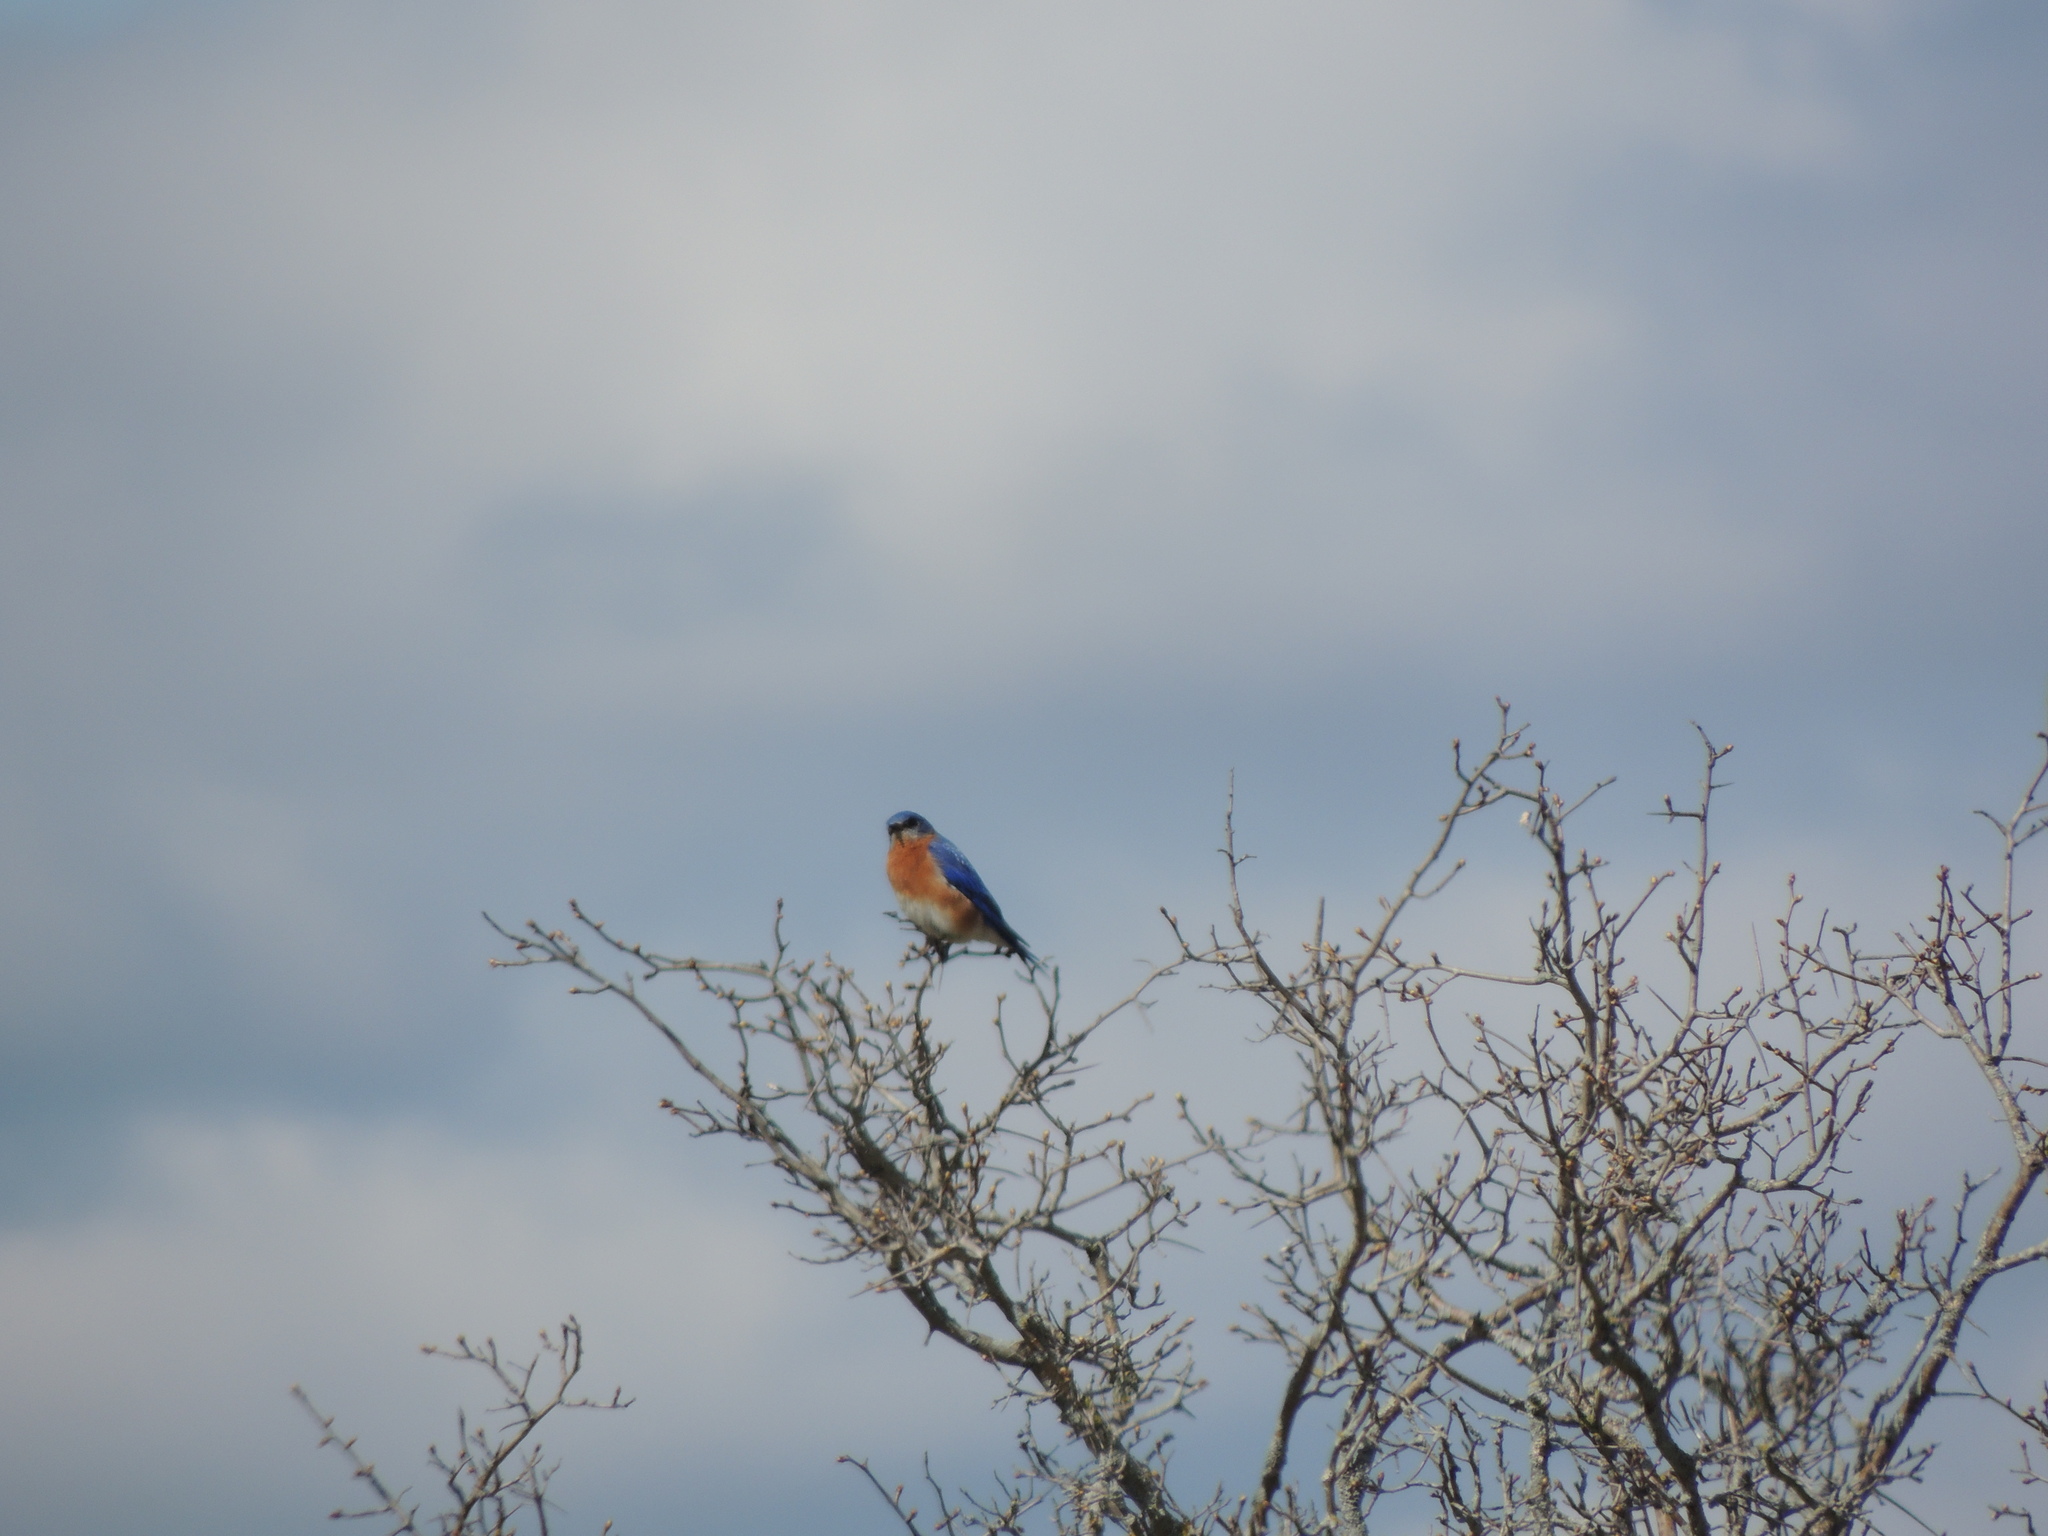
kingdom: Animalia
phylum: Chordata
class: Aves
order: Passeriformes
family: Turdidae
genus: Sialia
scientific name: Sialia sialis
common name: Eastern bluebird
